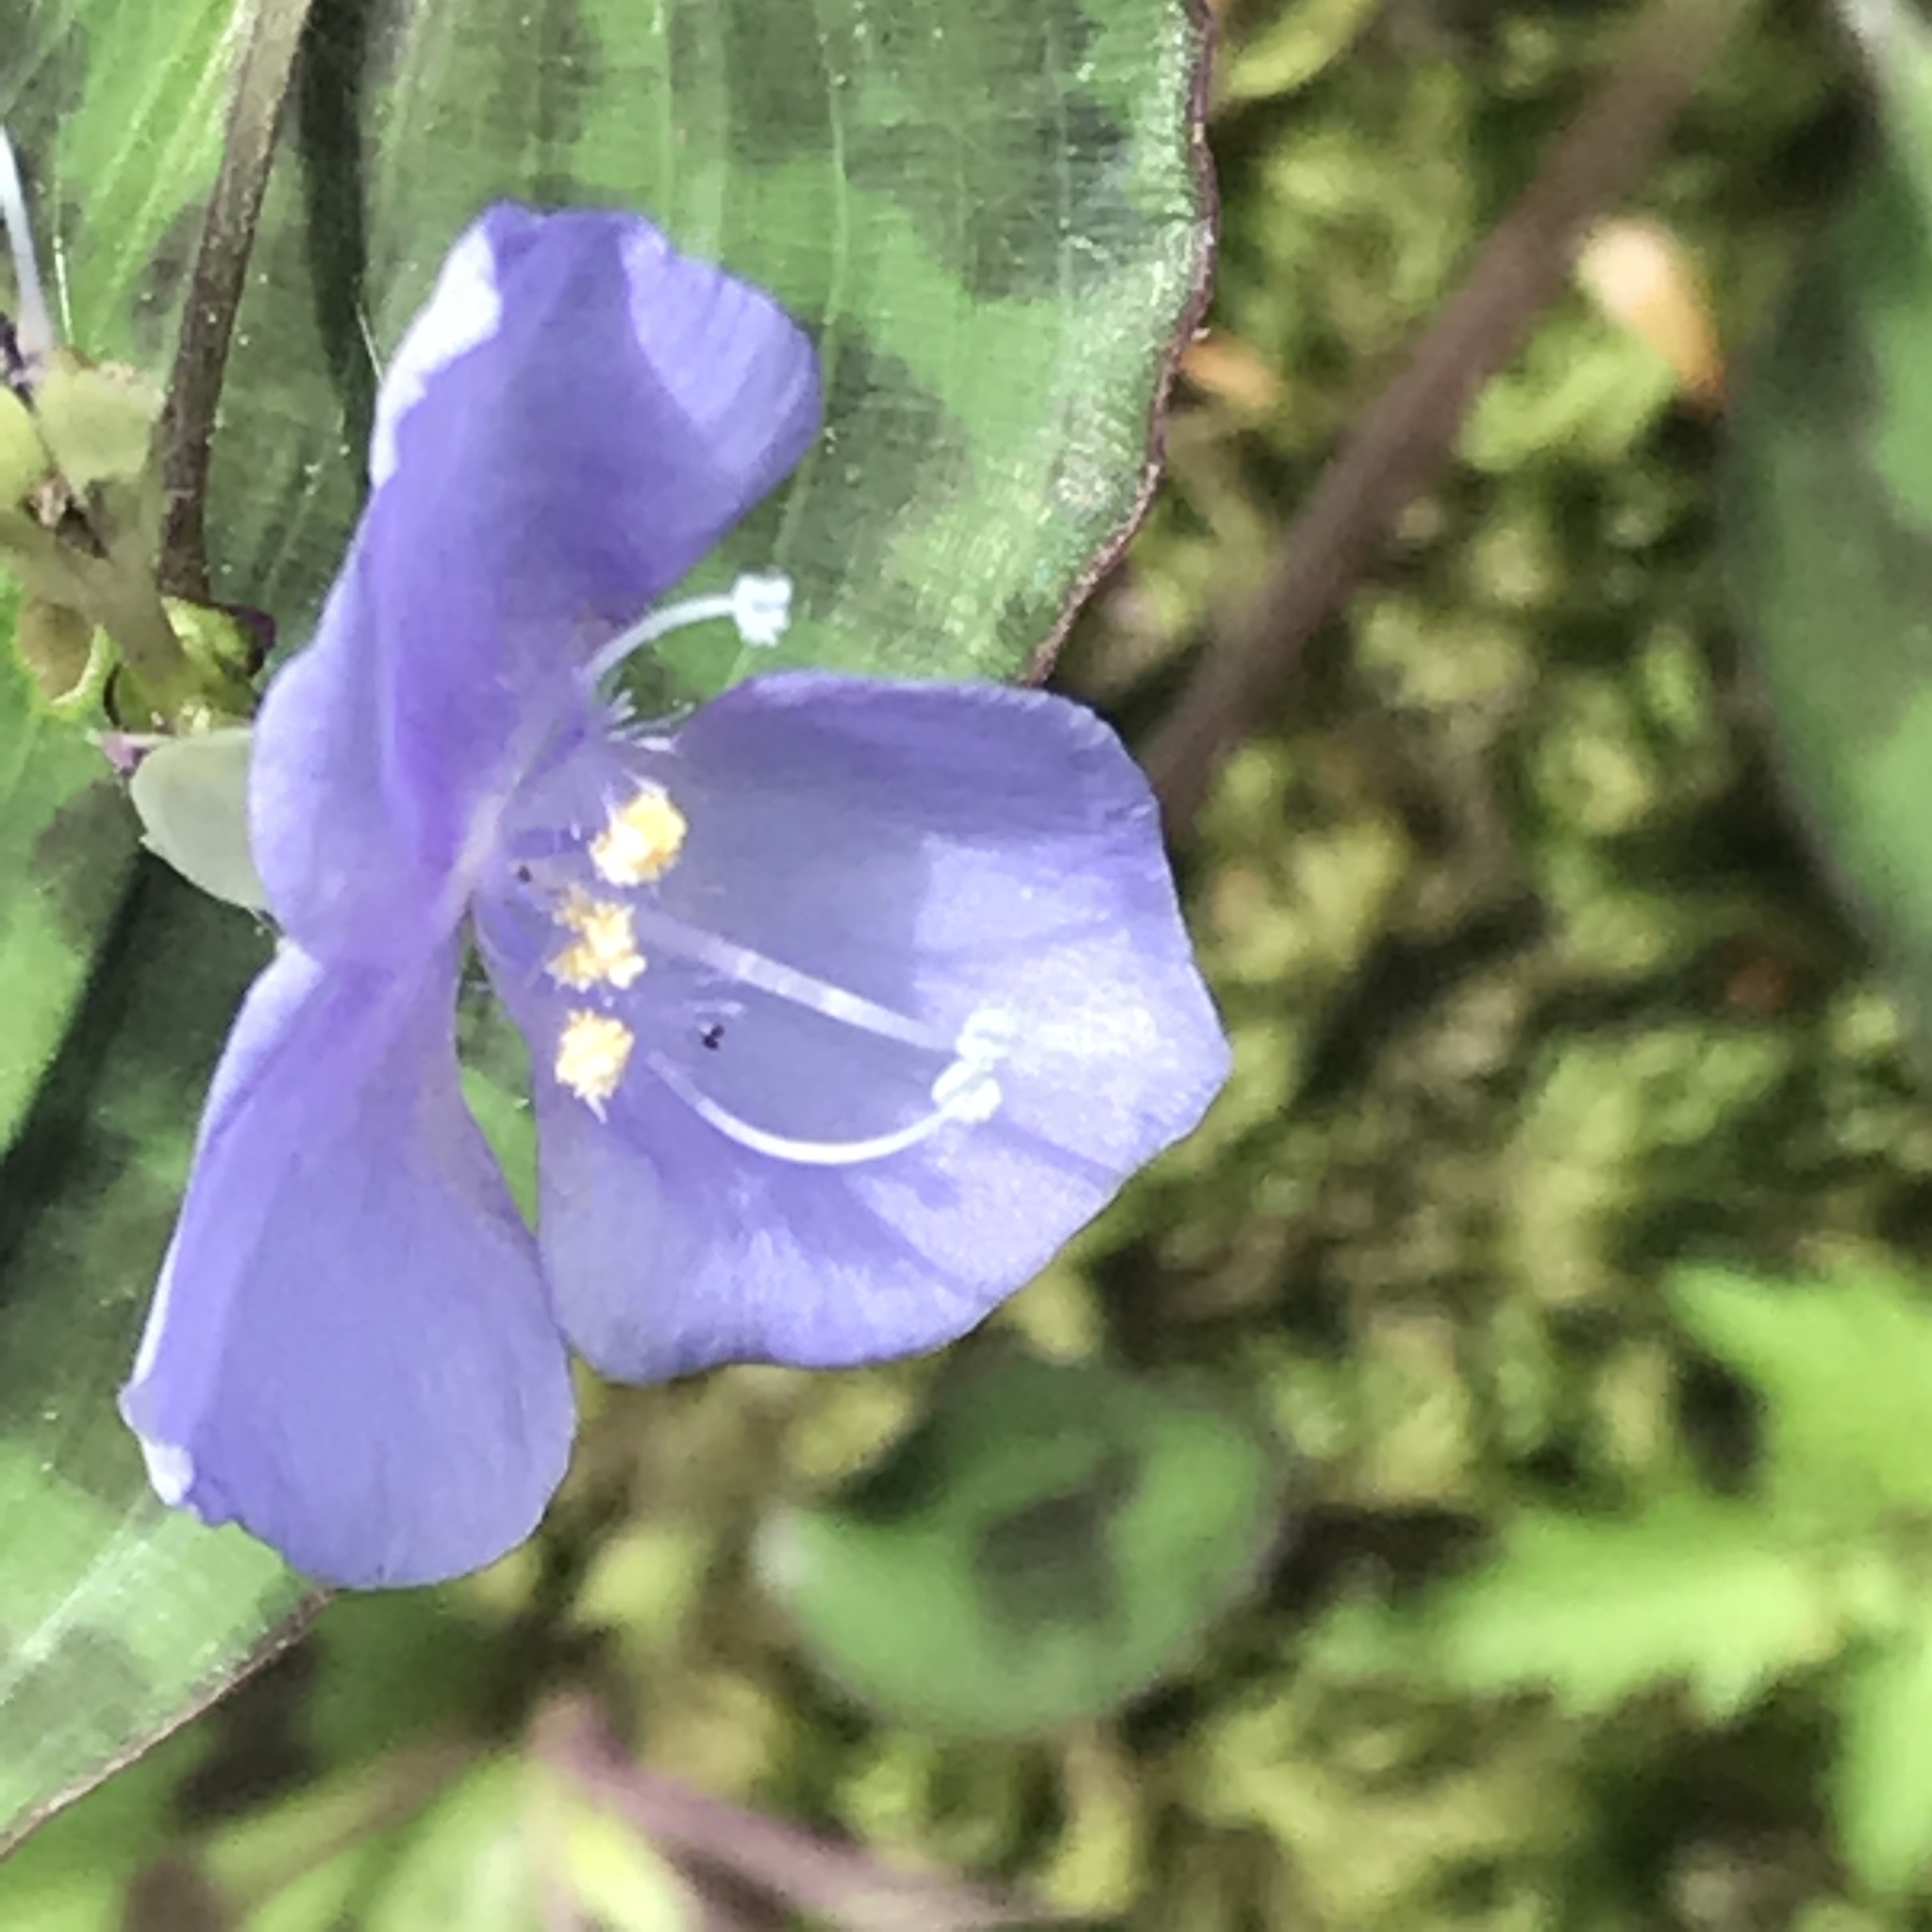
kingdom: Plantae
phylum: Tracheophyta
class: Liliopsida
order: Commelinales
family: Commelinaceae
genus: Tinantia
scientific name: Tinantia pringlei
